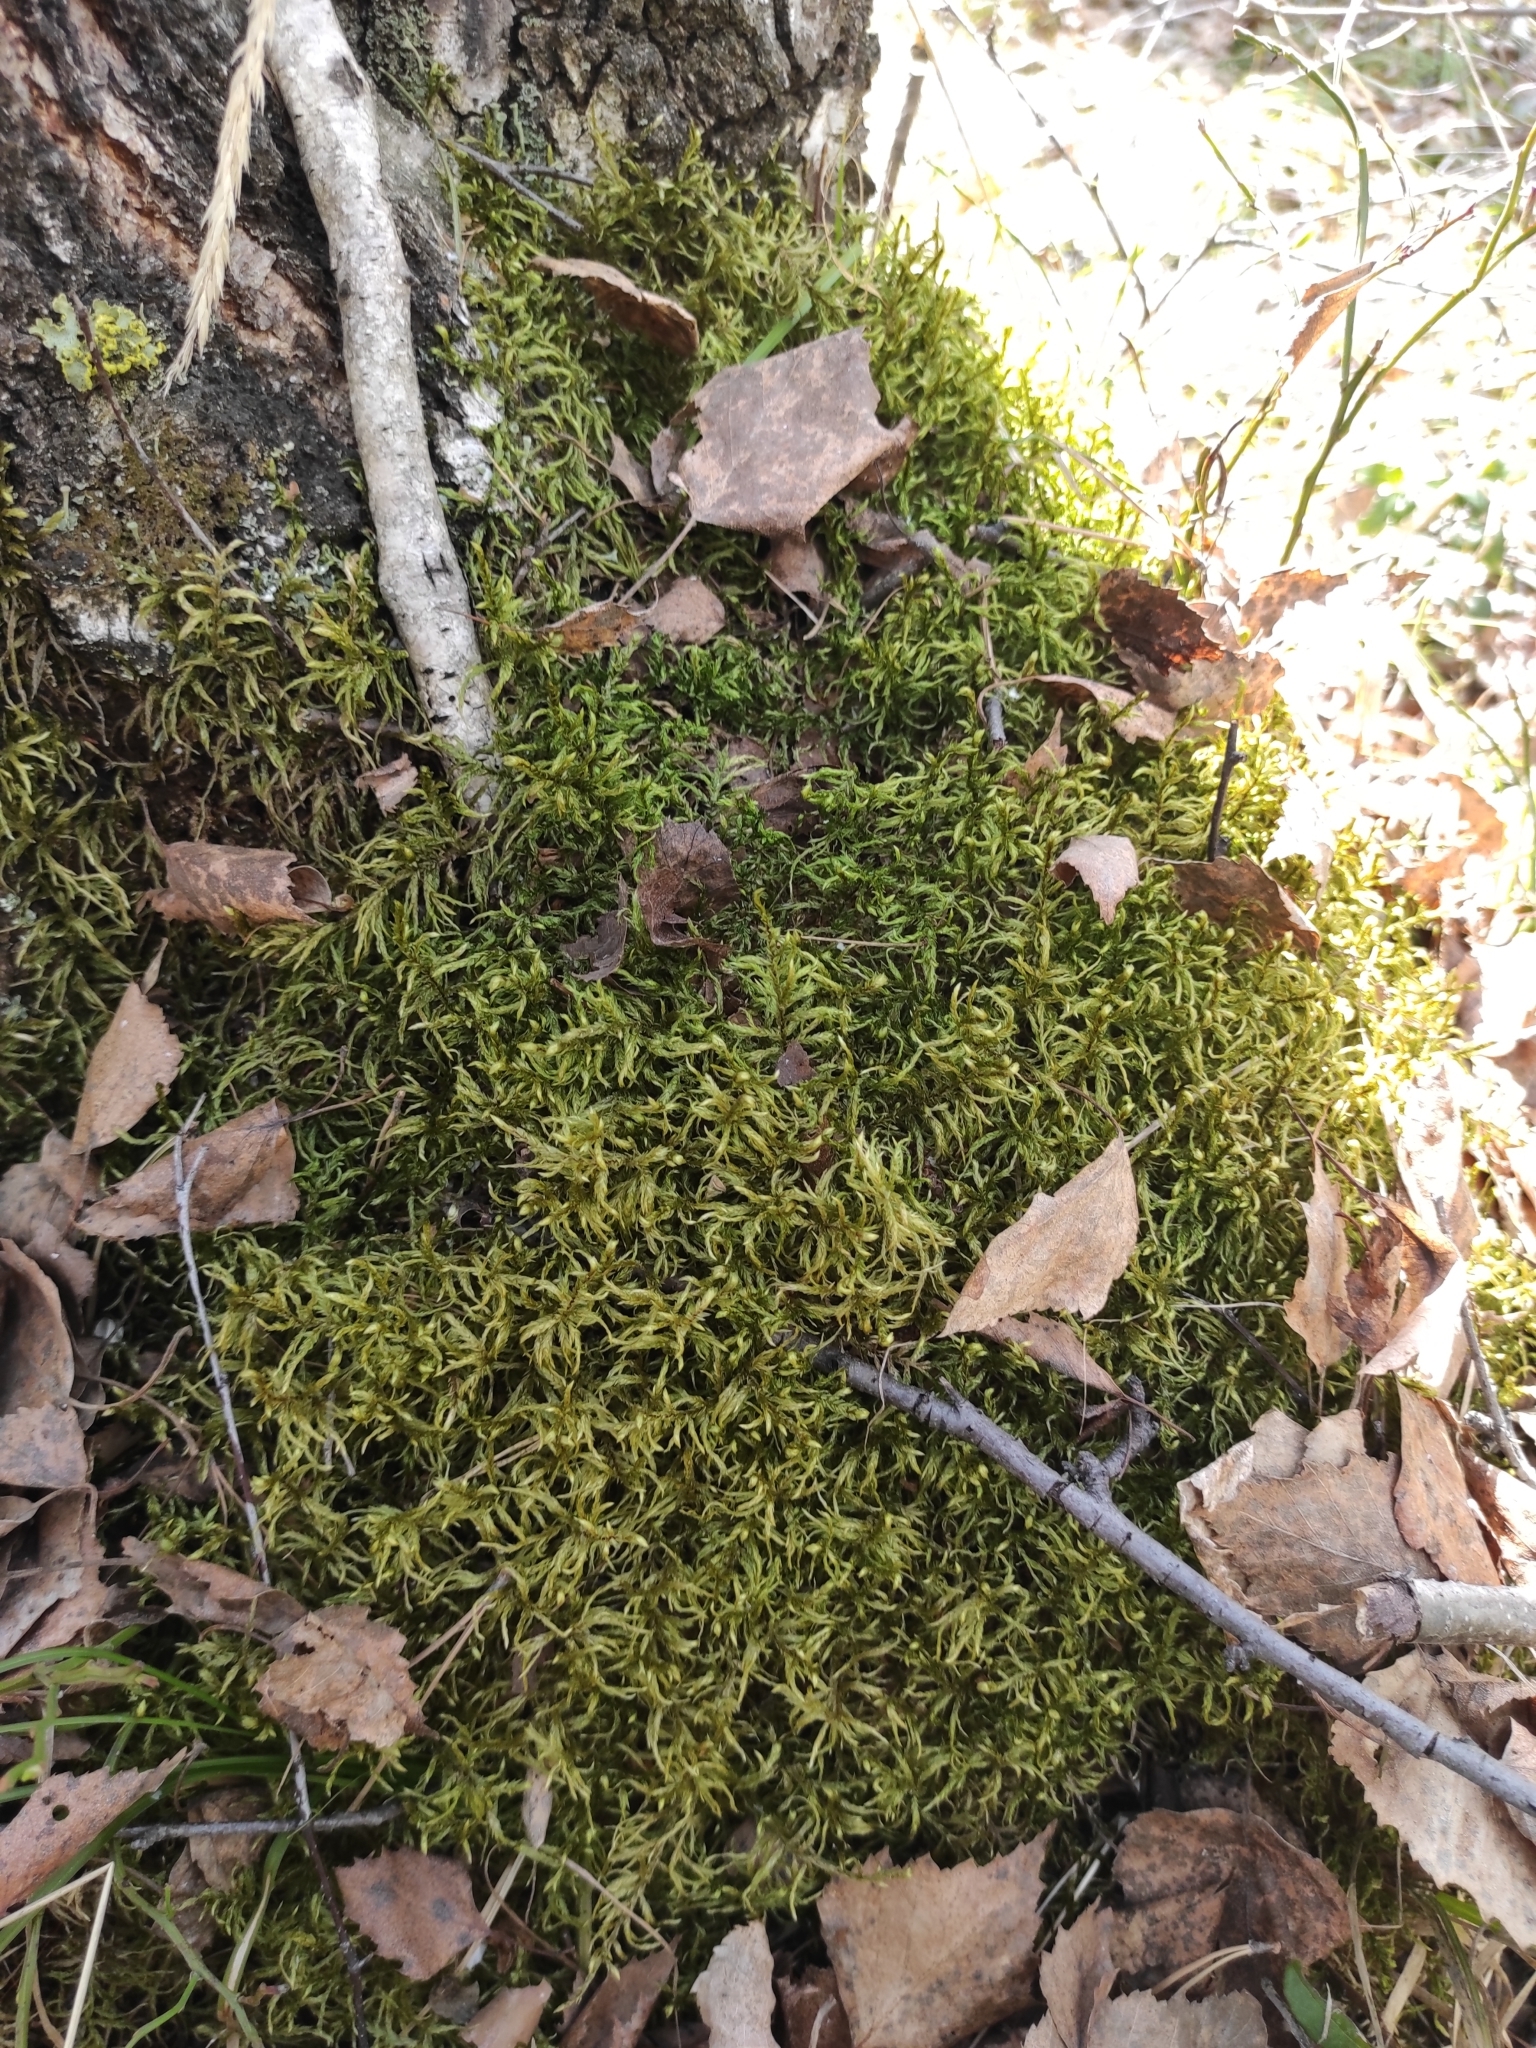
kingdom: Plantae
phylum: Bryophyta
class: Bryopsida
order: Hypnales
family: Hylocomiaceae
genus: Pleurozium
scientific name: Pleurozium schreberi
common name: Red-stemmed feather moss
